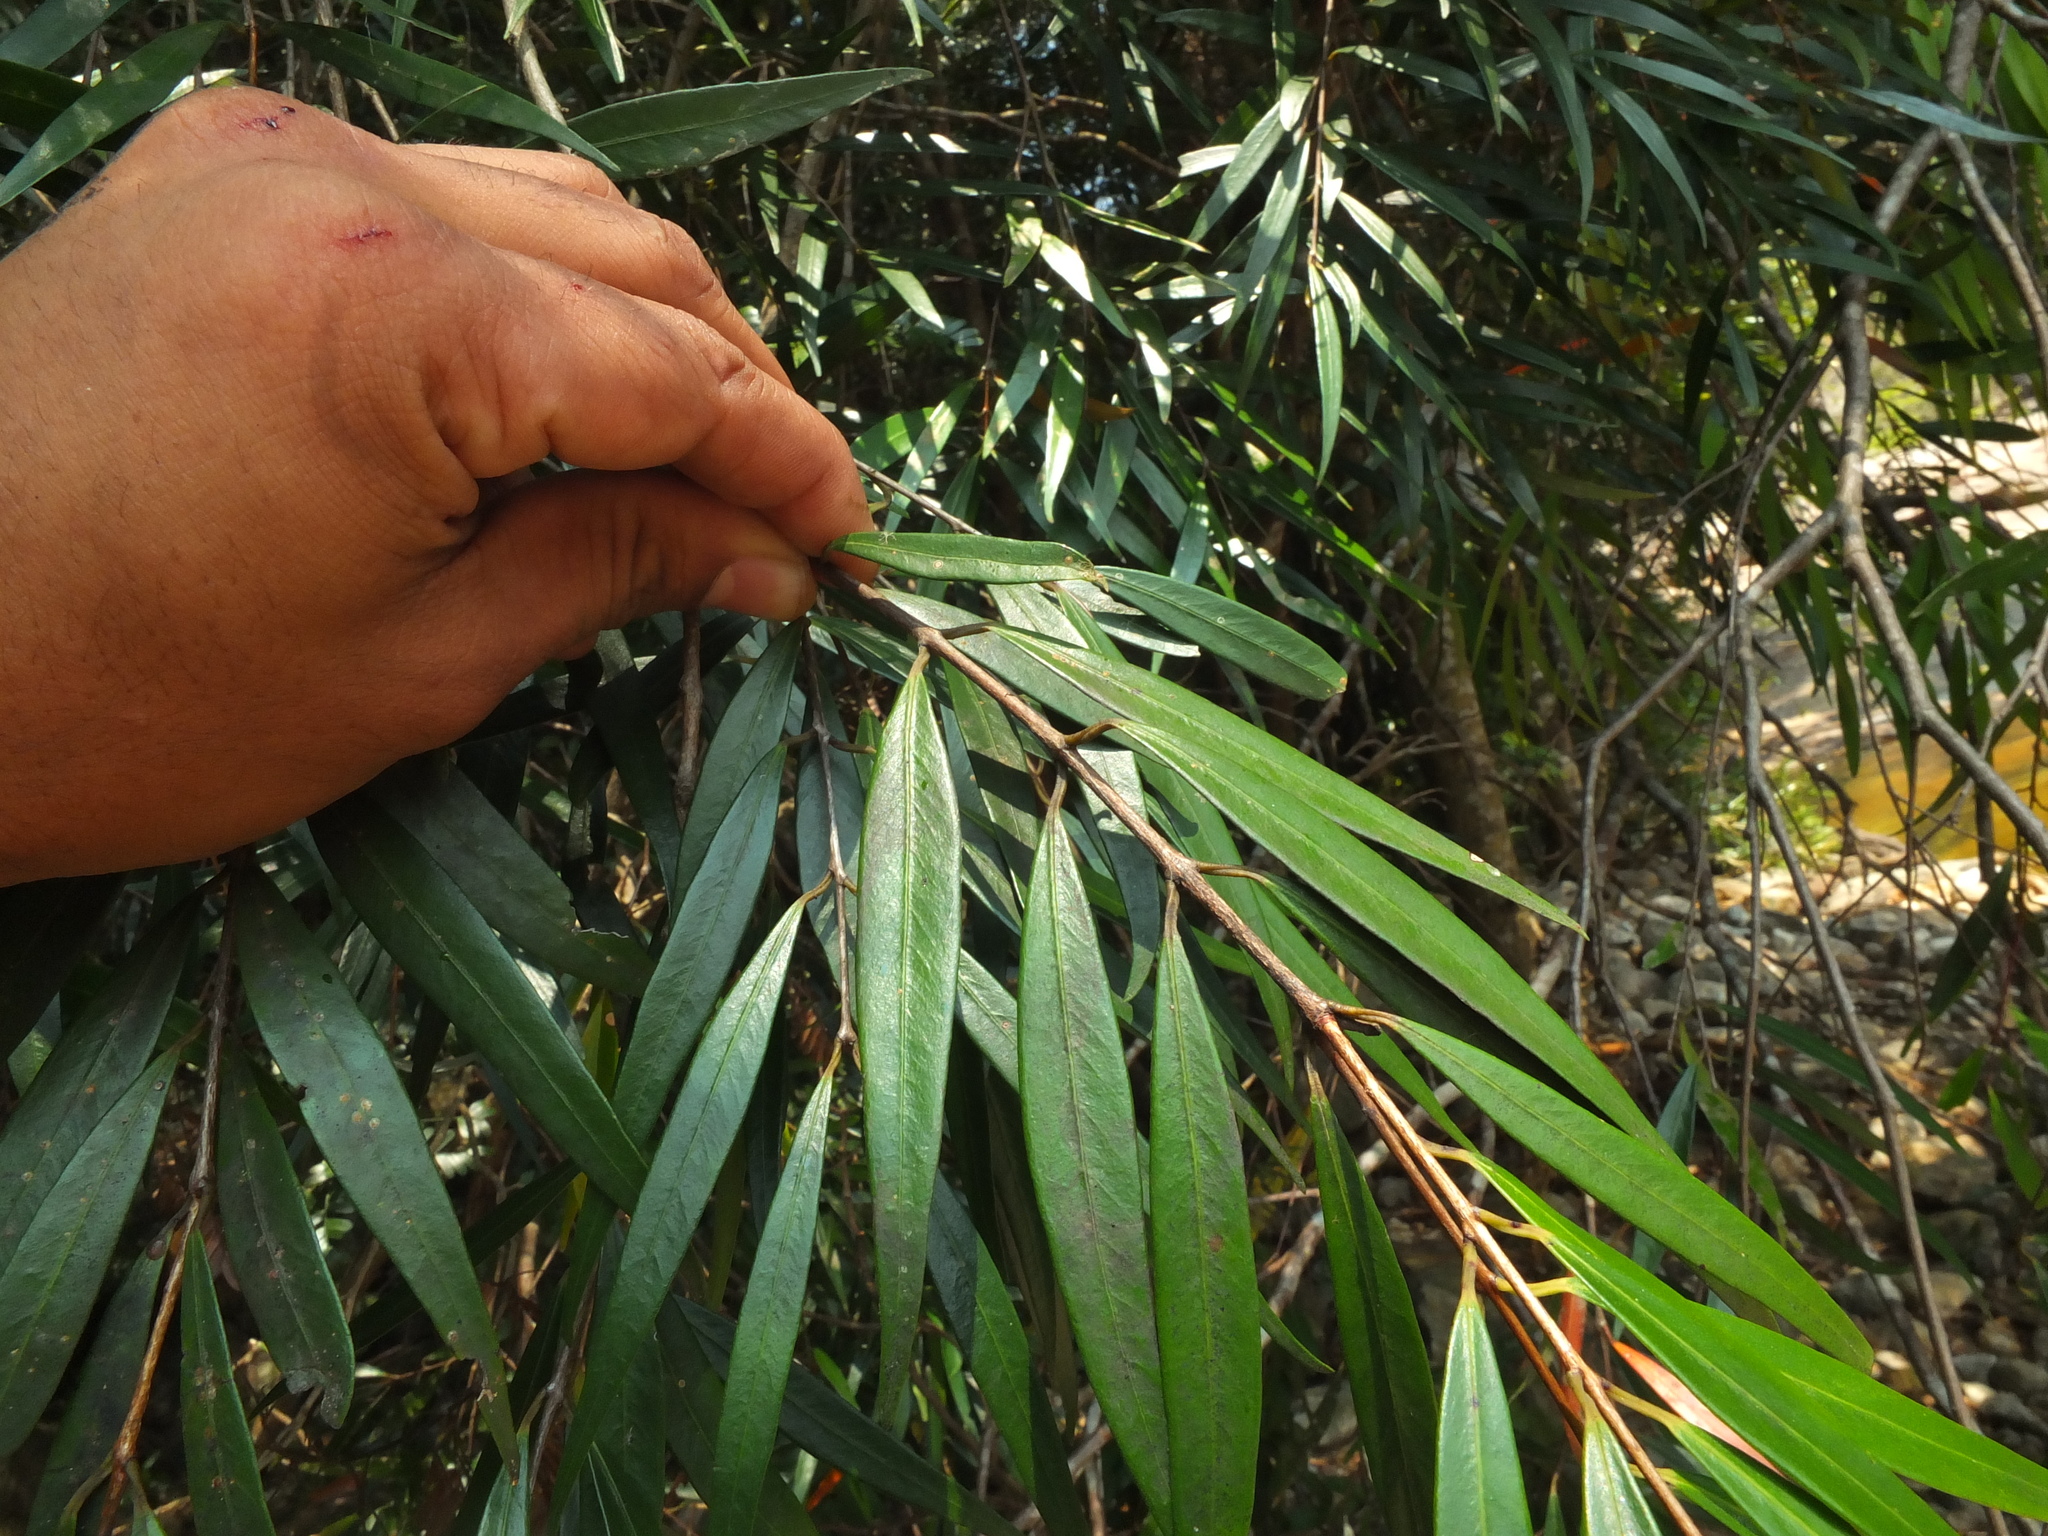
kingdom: Plantae
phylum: Tracheophyta
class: Magnoliopsida
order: Myrtales
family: Myrtaceae
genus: Syzygium
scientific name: Syzygium zeylanicum
